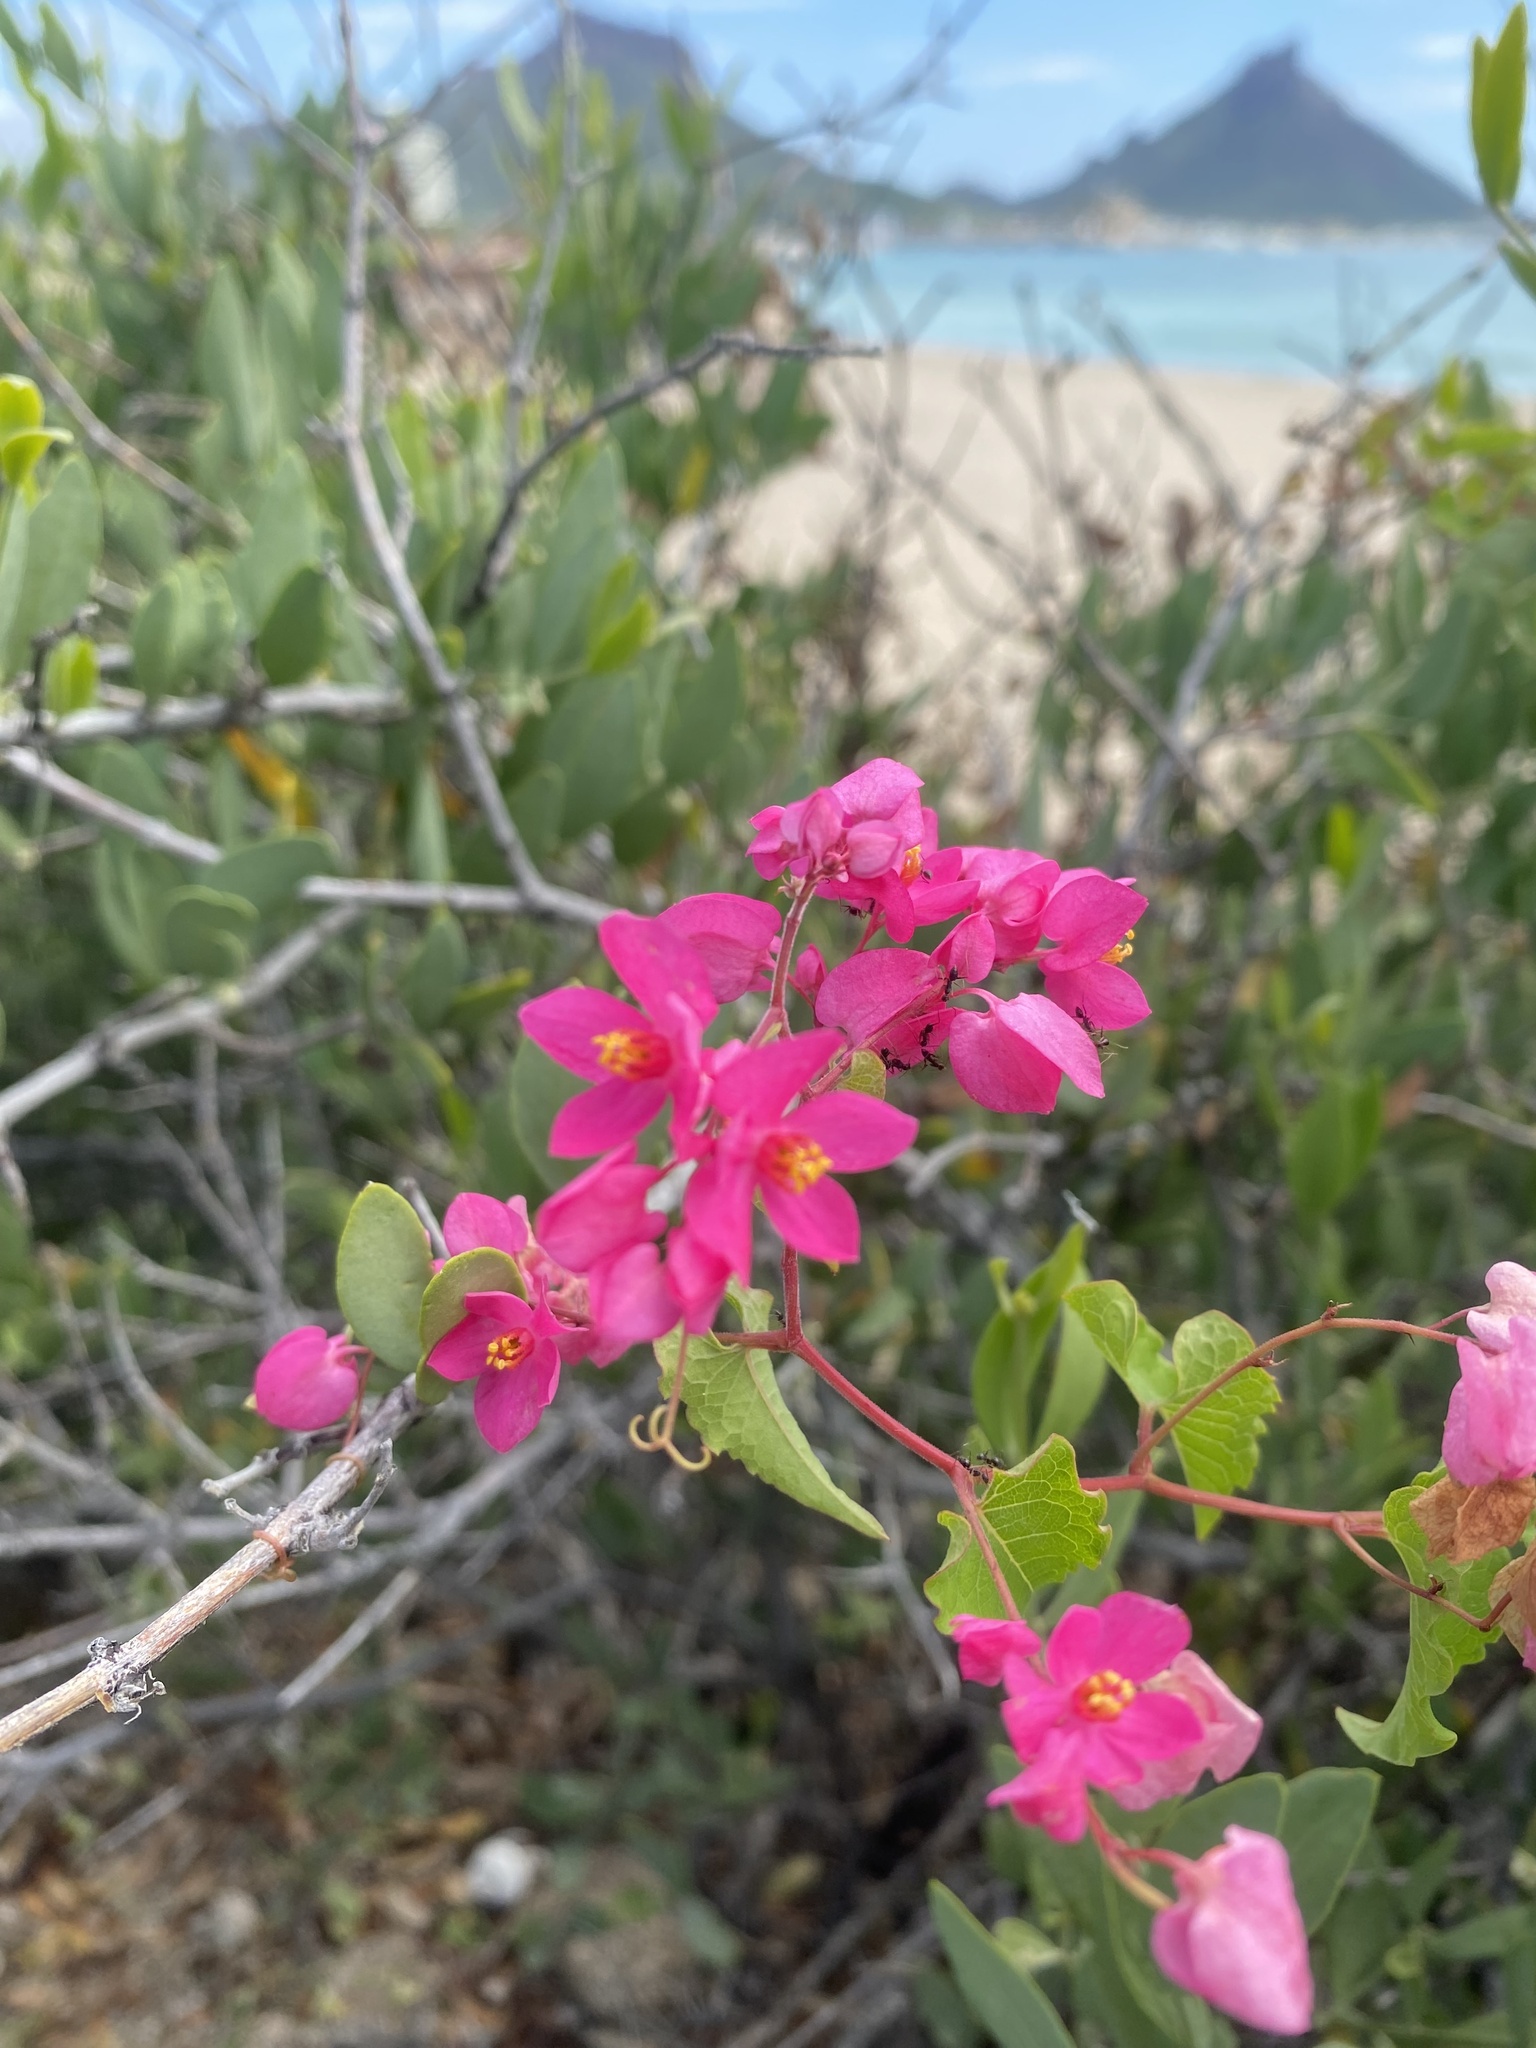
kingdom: Plantae
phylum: Tracheophyta
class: Magnoliopsida
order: Caryophyllales
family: Polygonaceae
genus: Antigonon
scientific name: Antigonon leptopus
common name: Coral vine
